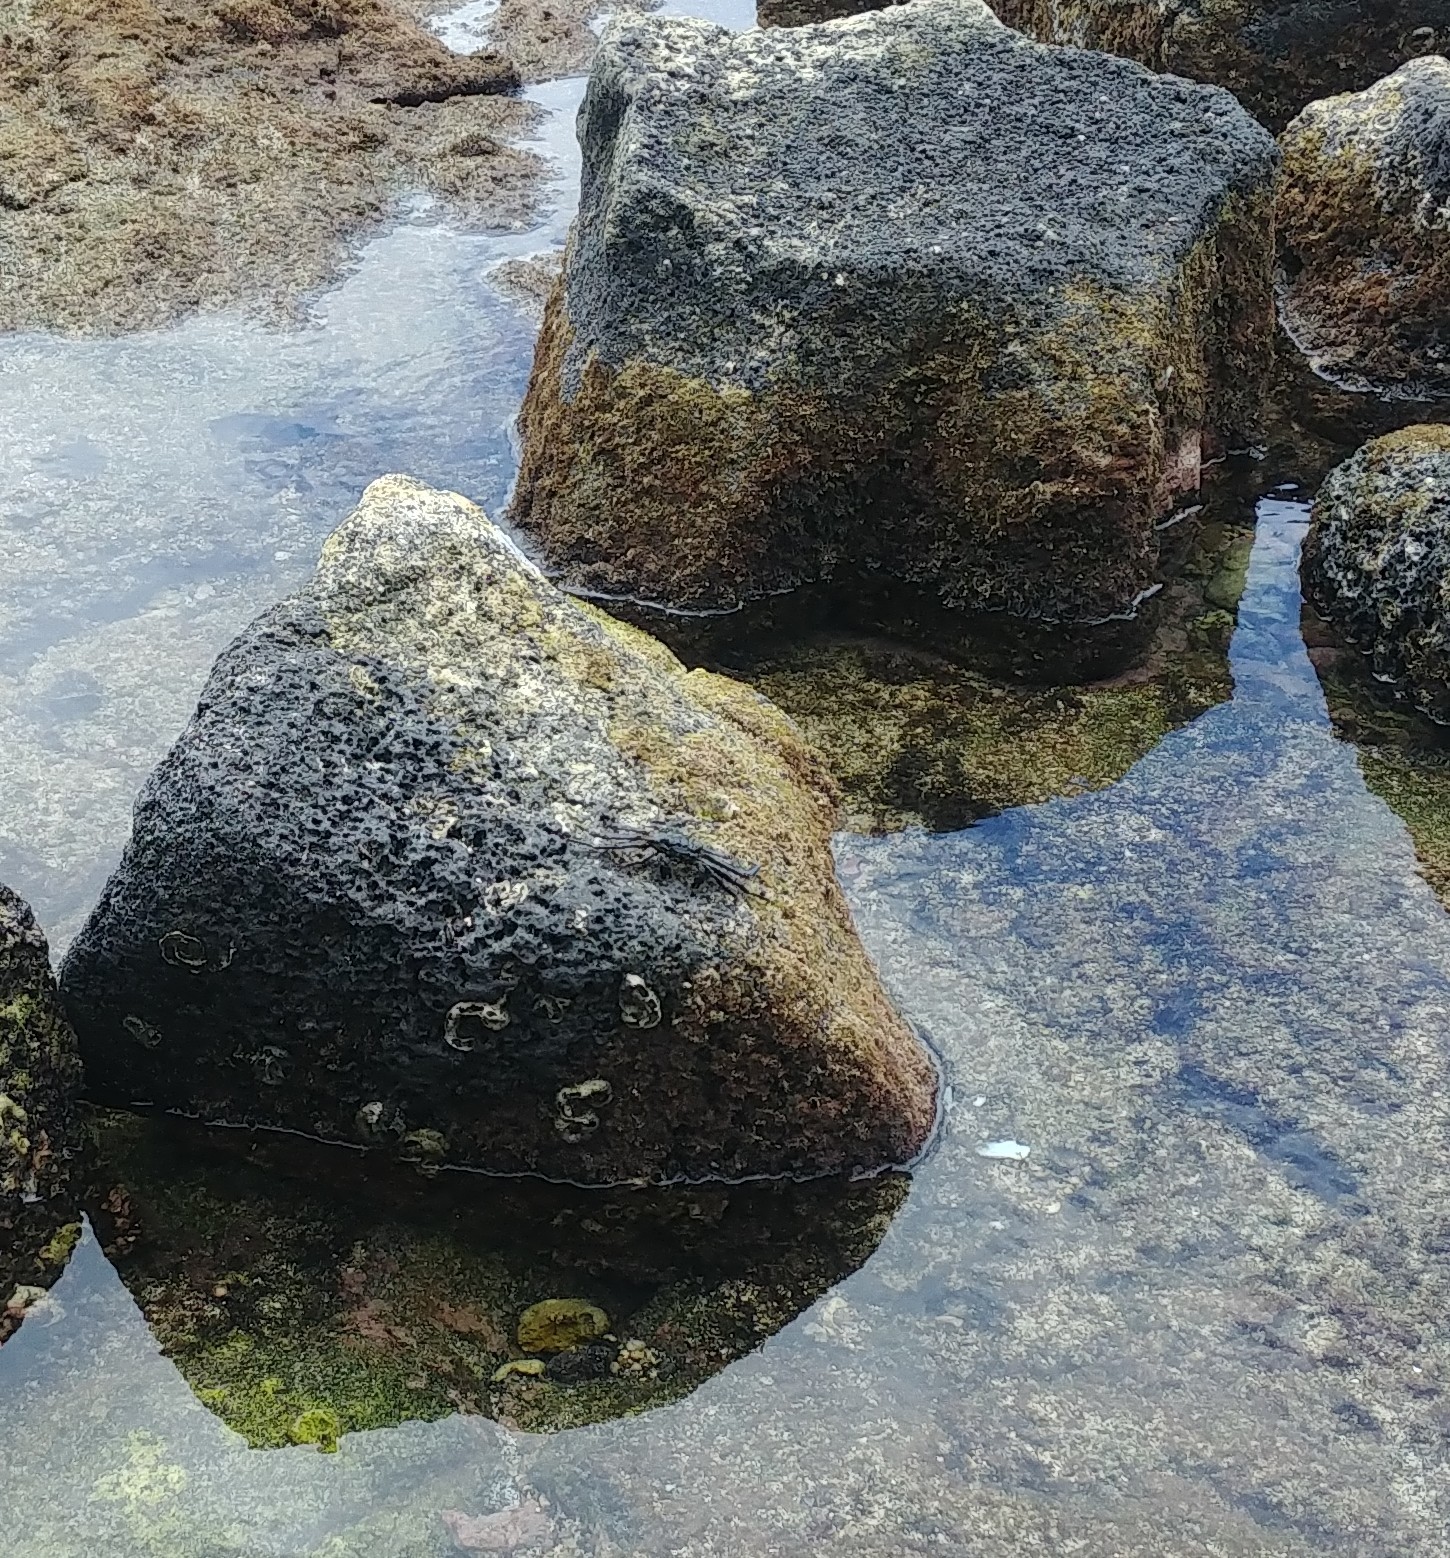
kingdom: Animalia
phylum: Arthropoda
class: Malacostraca
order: Decapoda
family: Grapsidae
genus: Grapsus
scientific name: Grapsus tenuicrustatus
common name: Natal lightfoot crab
